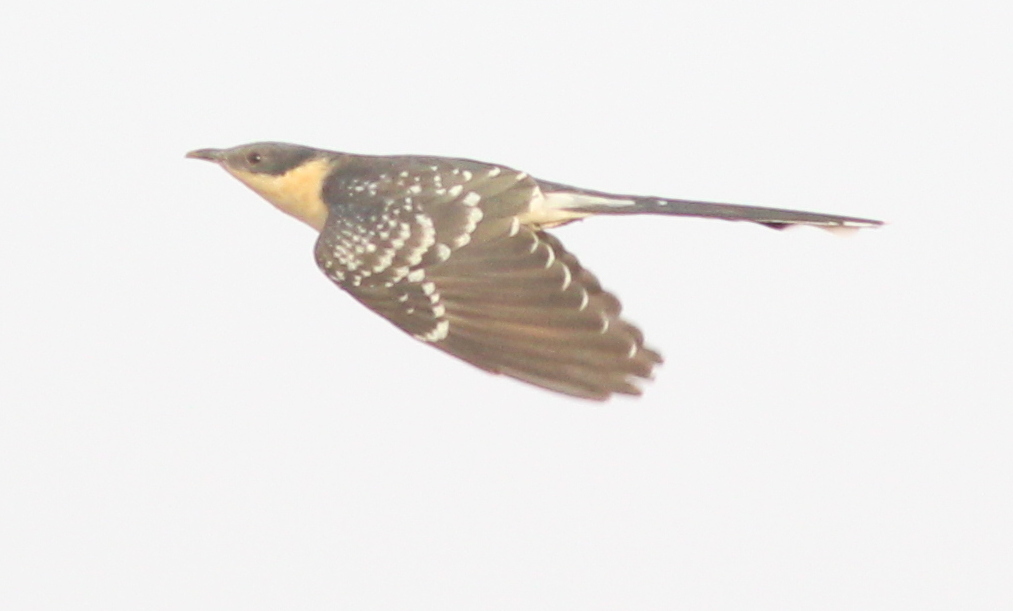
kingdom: Animalia
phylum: Chordata
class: Aves
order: Cuculiformes
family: Cuculidae
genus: Clamator
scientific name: Clamator glandarius
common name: Great spotted cuckoo
